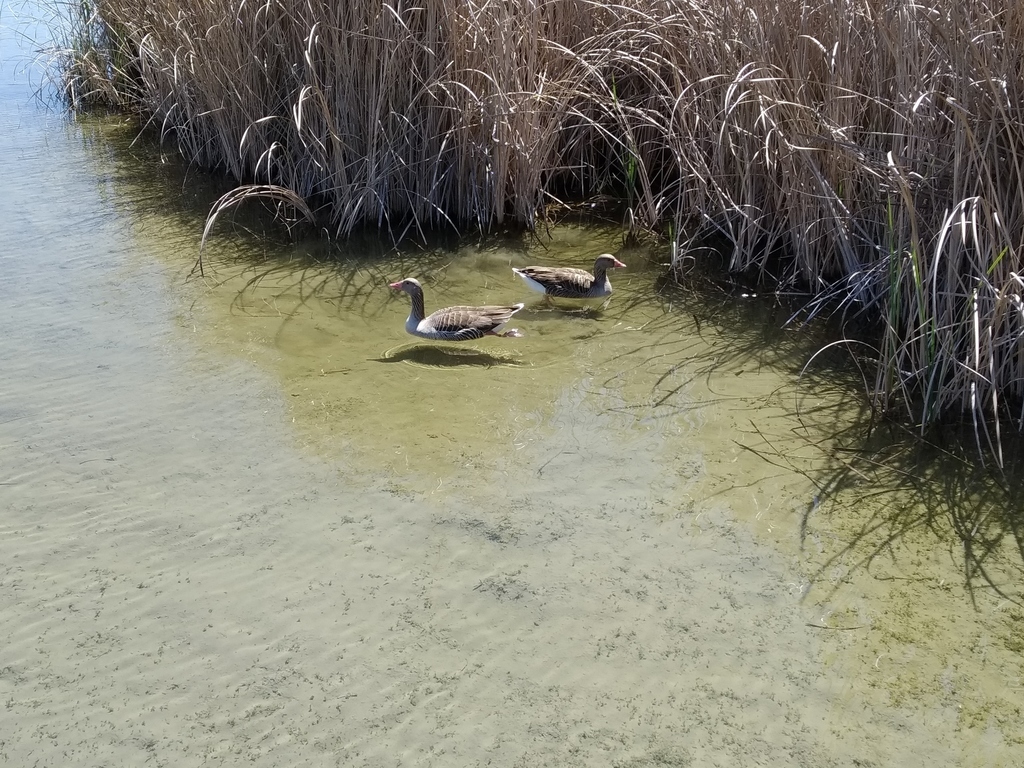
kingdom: Animalia
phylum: Chordata
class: Aves
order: Anseriformes
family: Anatidae
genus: Anser
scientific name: Anser anser
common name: Greylag goose
